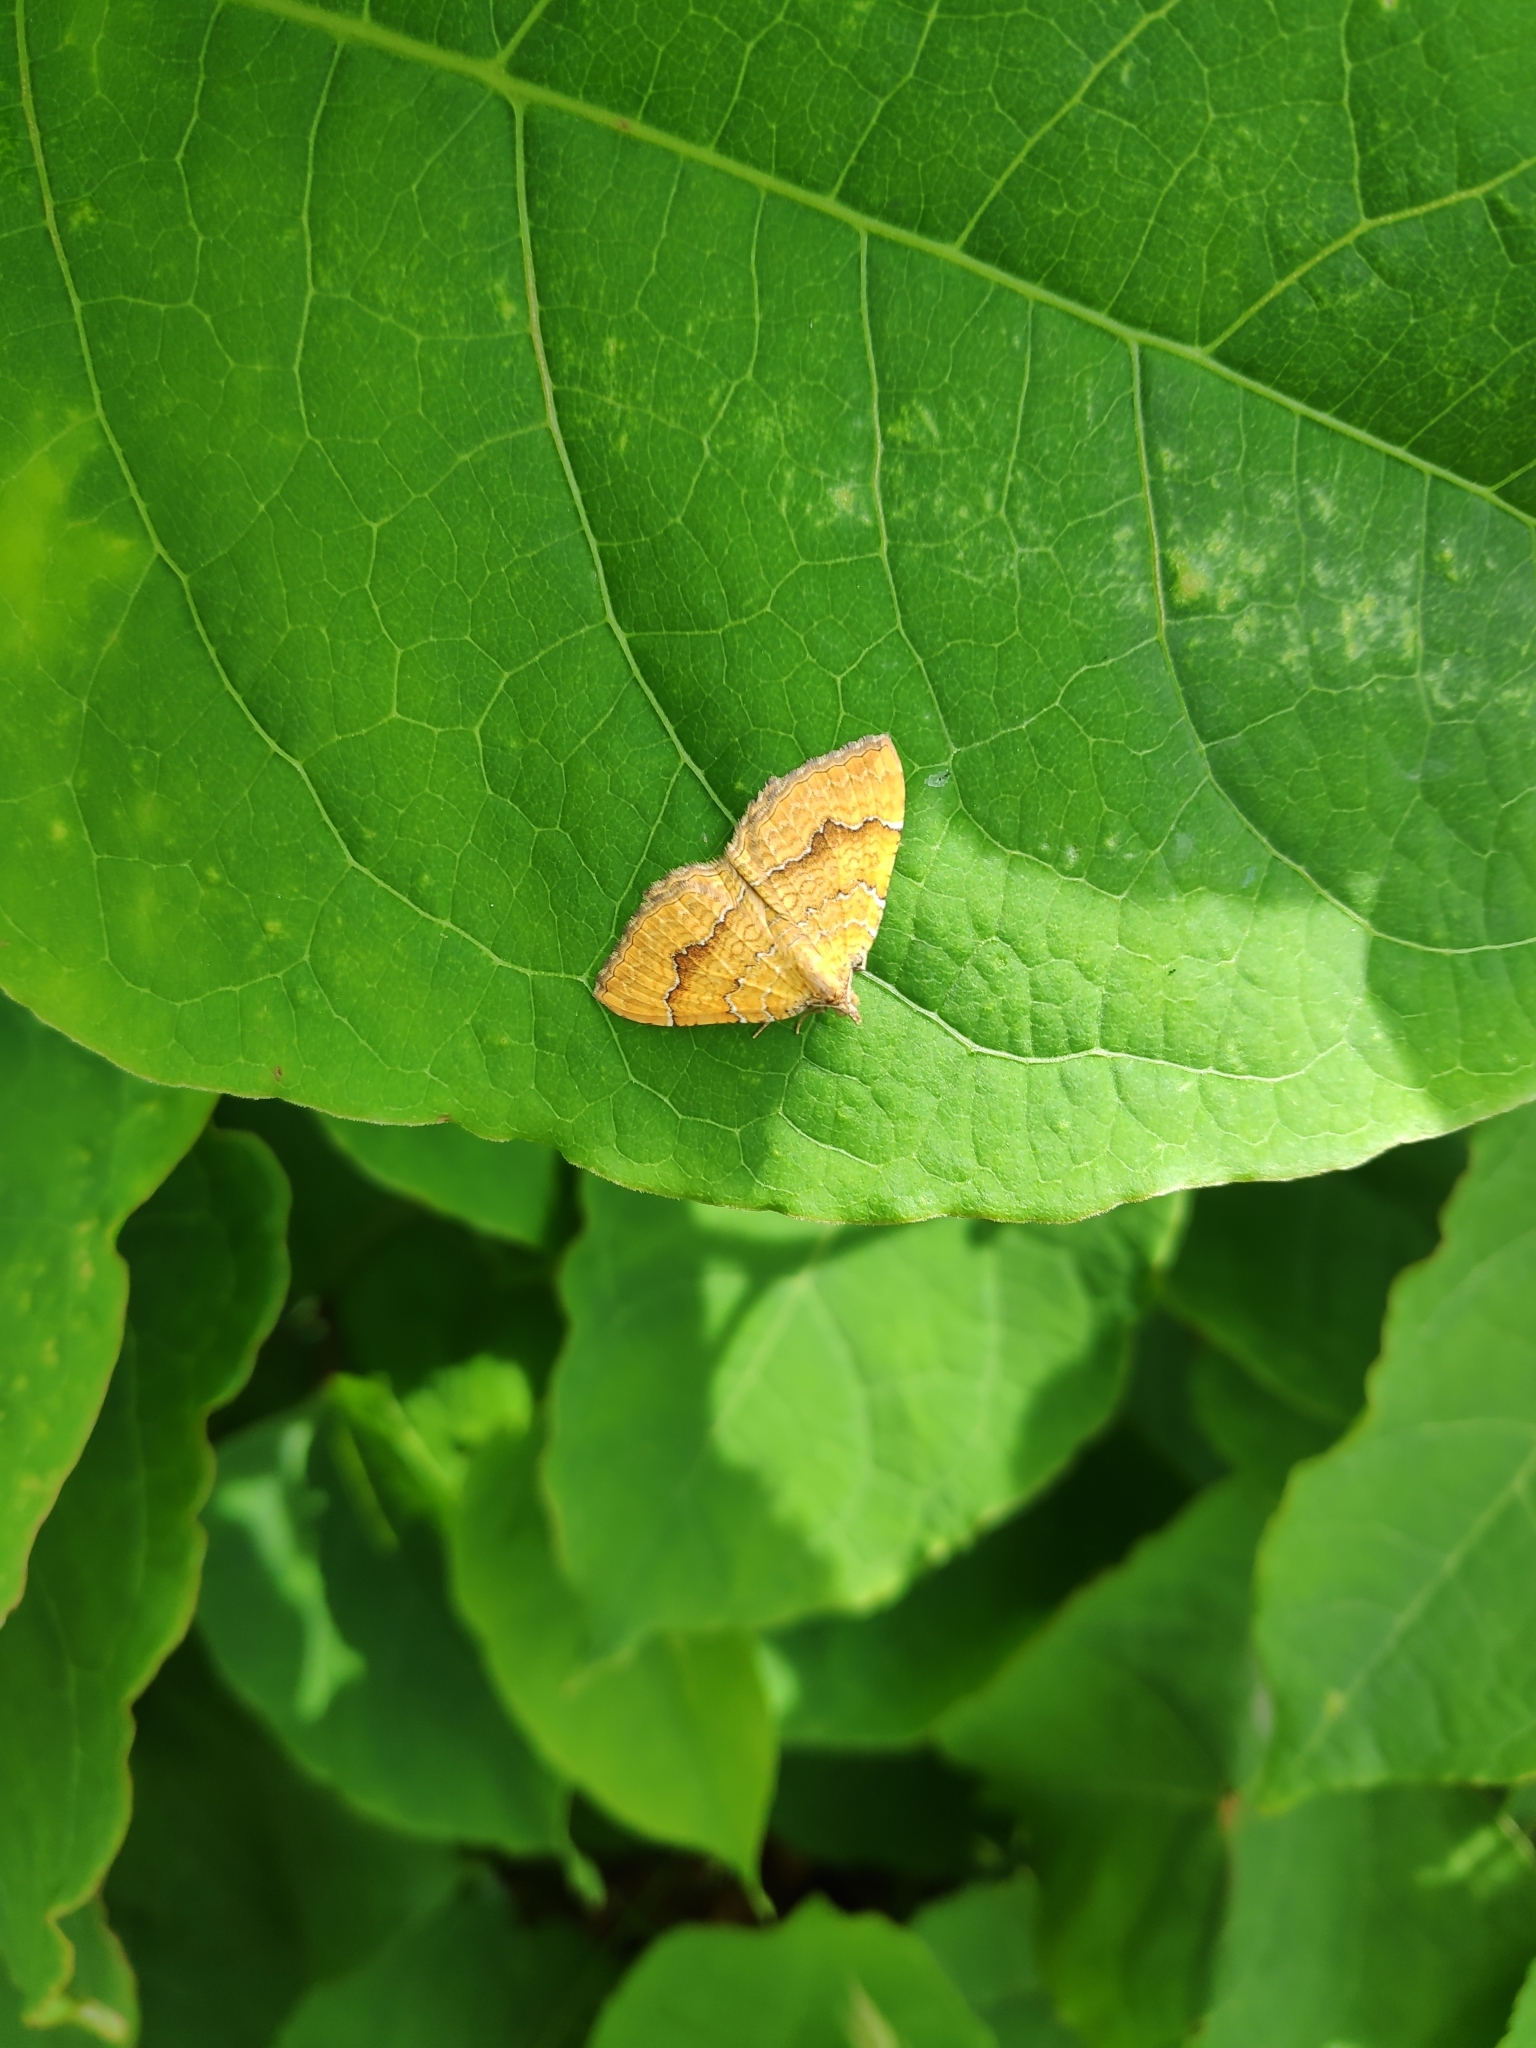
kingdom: Animalia
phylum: Arthropoda
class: Insecta
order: Lepidoptera
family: Geometridae
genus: Camptogramma
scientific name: Camptogramma bilineata
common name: Yellow shell
